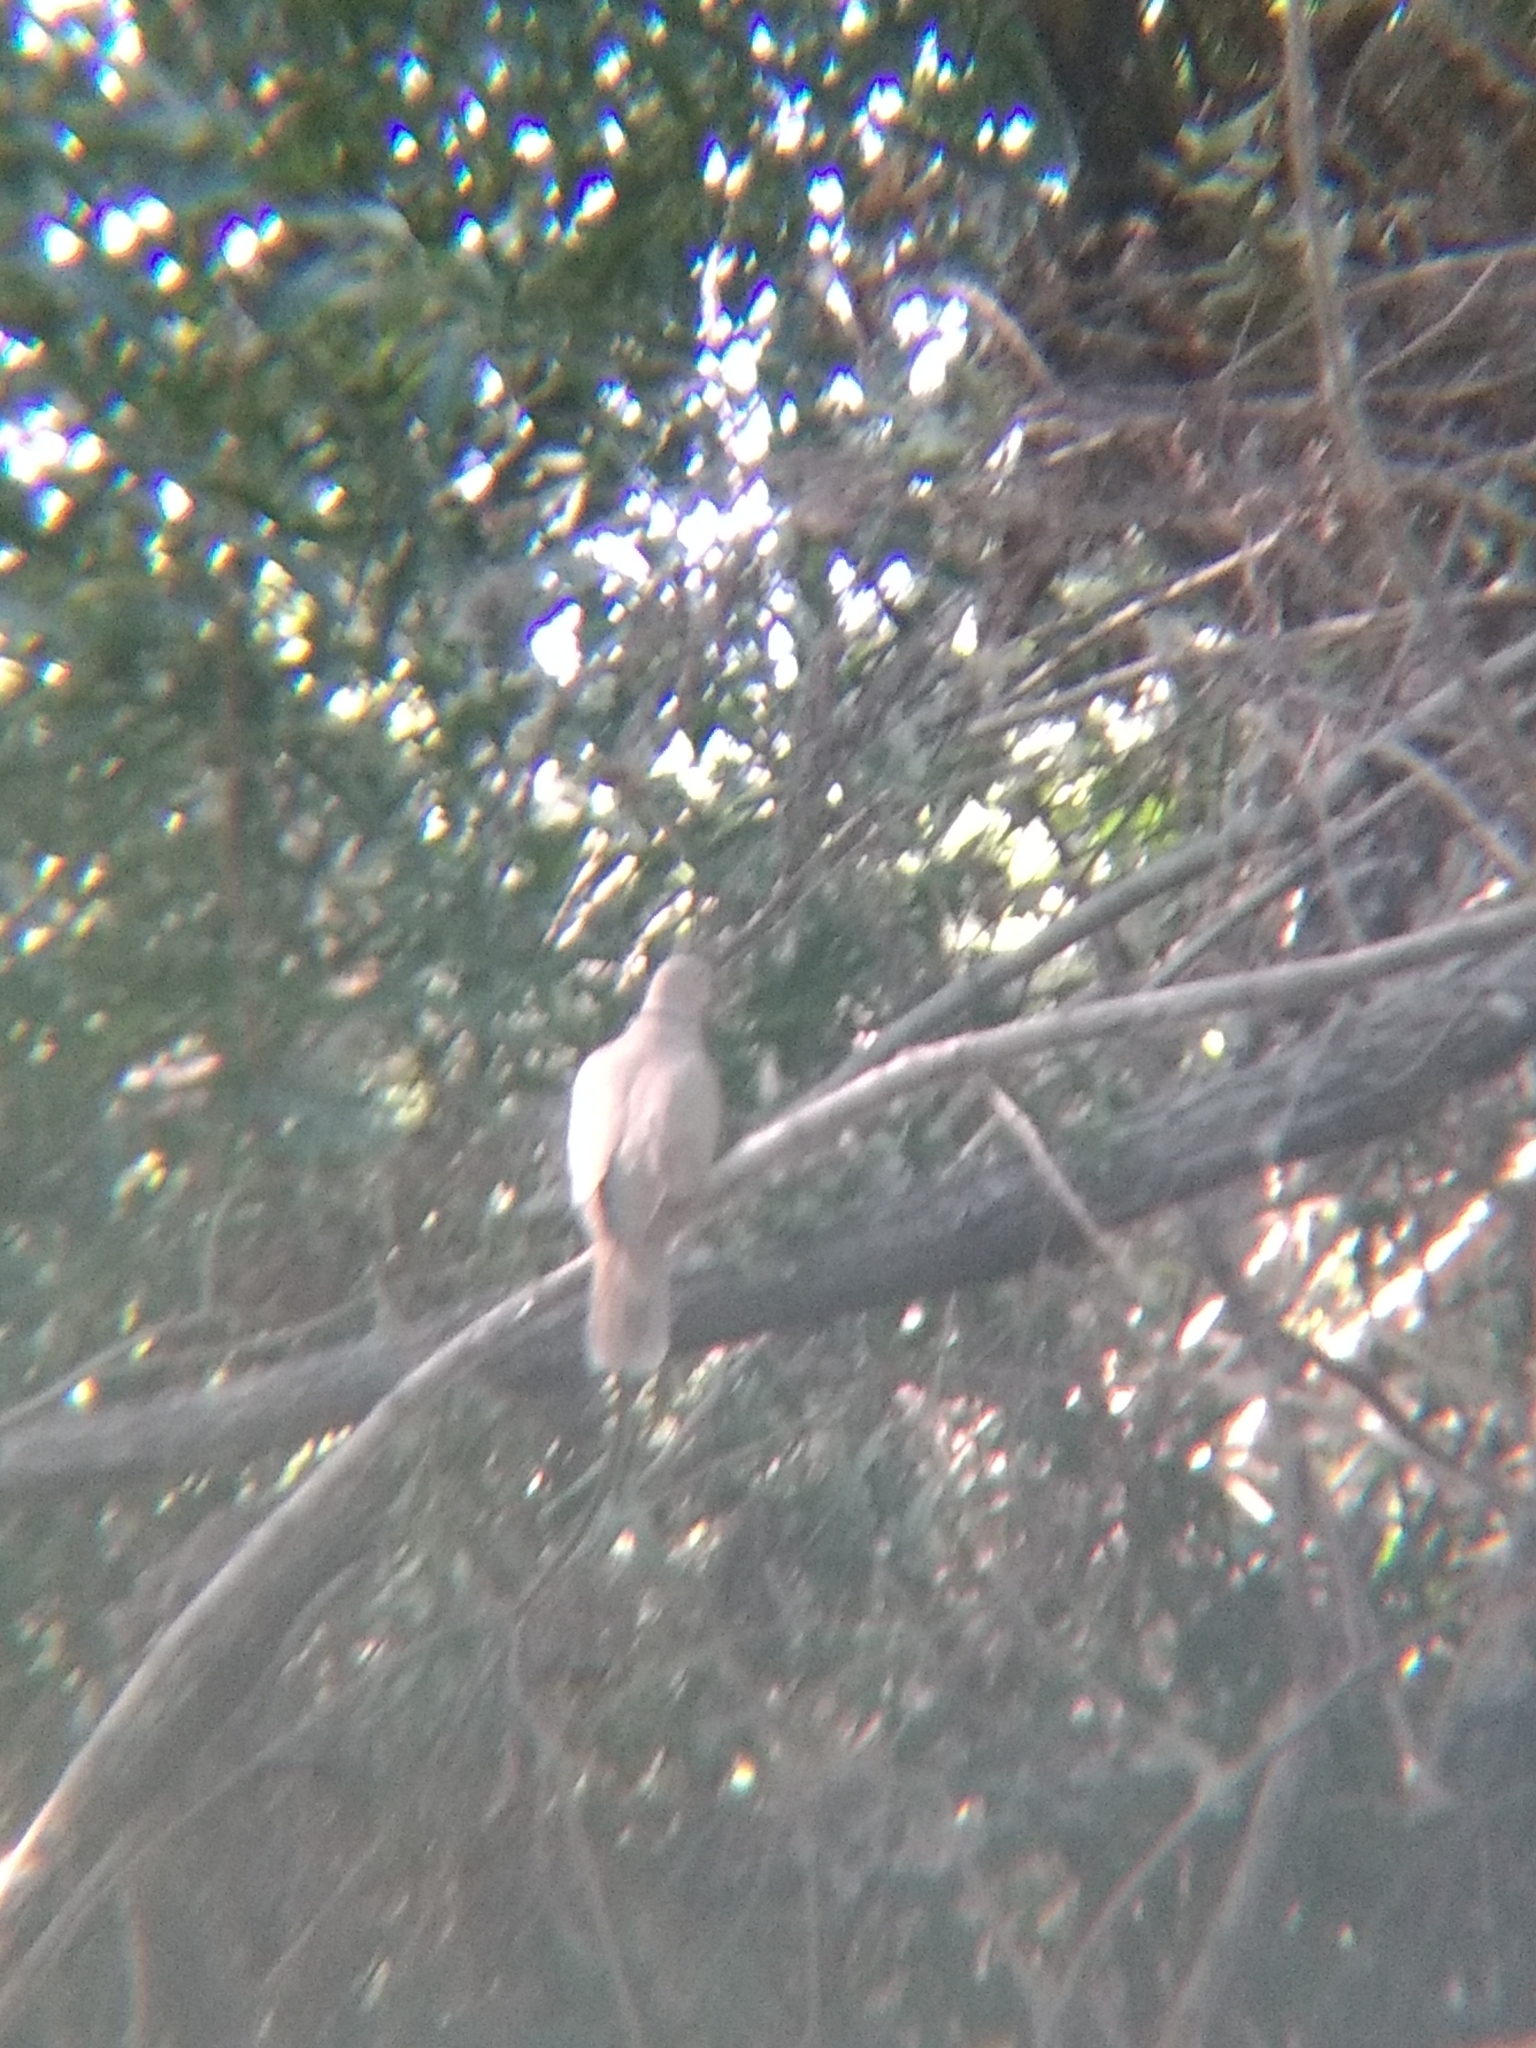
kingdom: Animalia
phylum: Chordata
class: Aves
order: Columbiformes
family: Columbidae
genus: Streptopelia
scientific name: Streptopelia decaocto
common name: Eurasian collared dove
